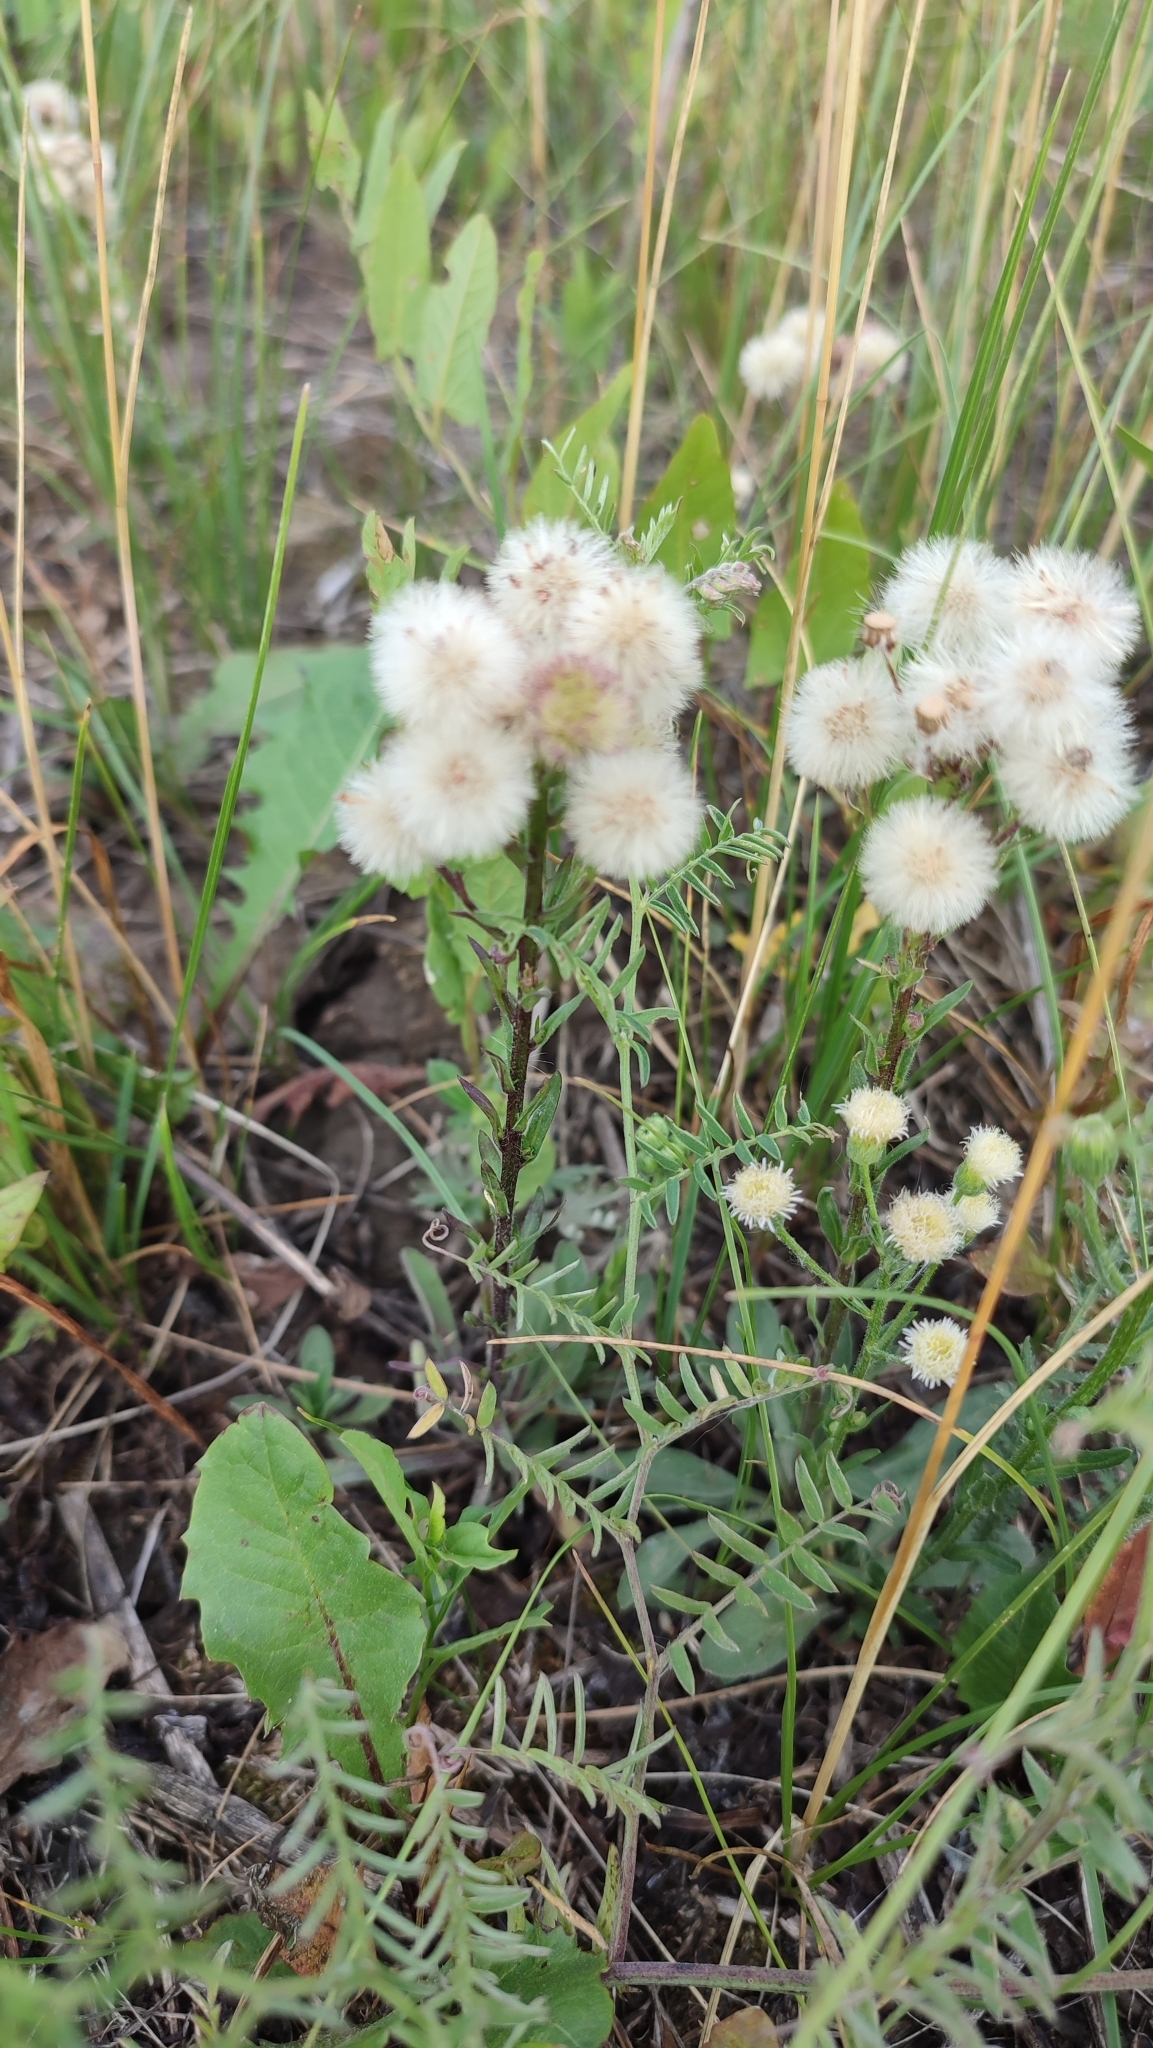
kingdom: Plantae
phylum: Tracheophyta
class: Magnoliopsida
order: Asterales
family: Asteraceae
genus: Erigeron
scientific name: Erigeron acris
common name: Blue fleabane
